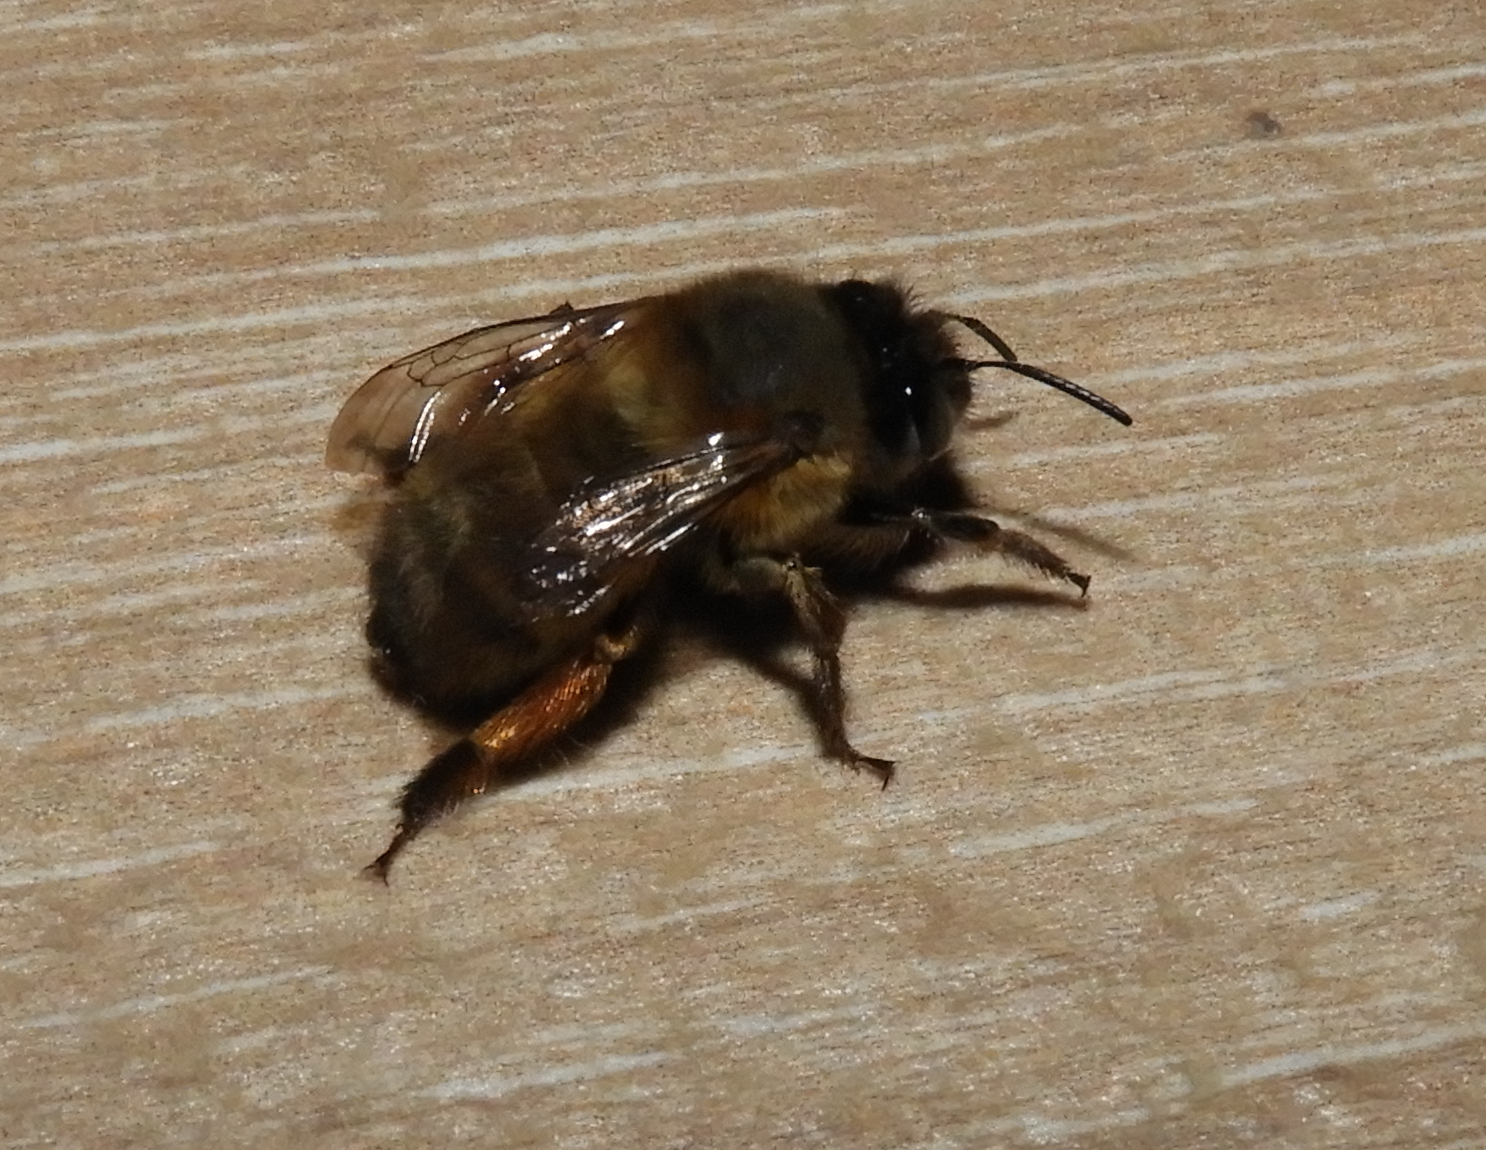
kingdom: Animalia
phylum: Arthropoda
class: Insecta
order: Hymenoptera
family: Apidae
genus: Anthophora
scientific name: Anthophora plumipes
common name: Hairy-footed flower bee
